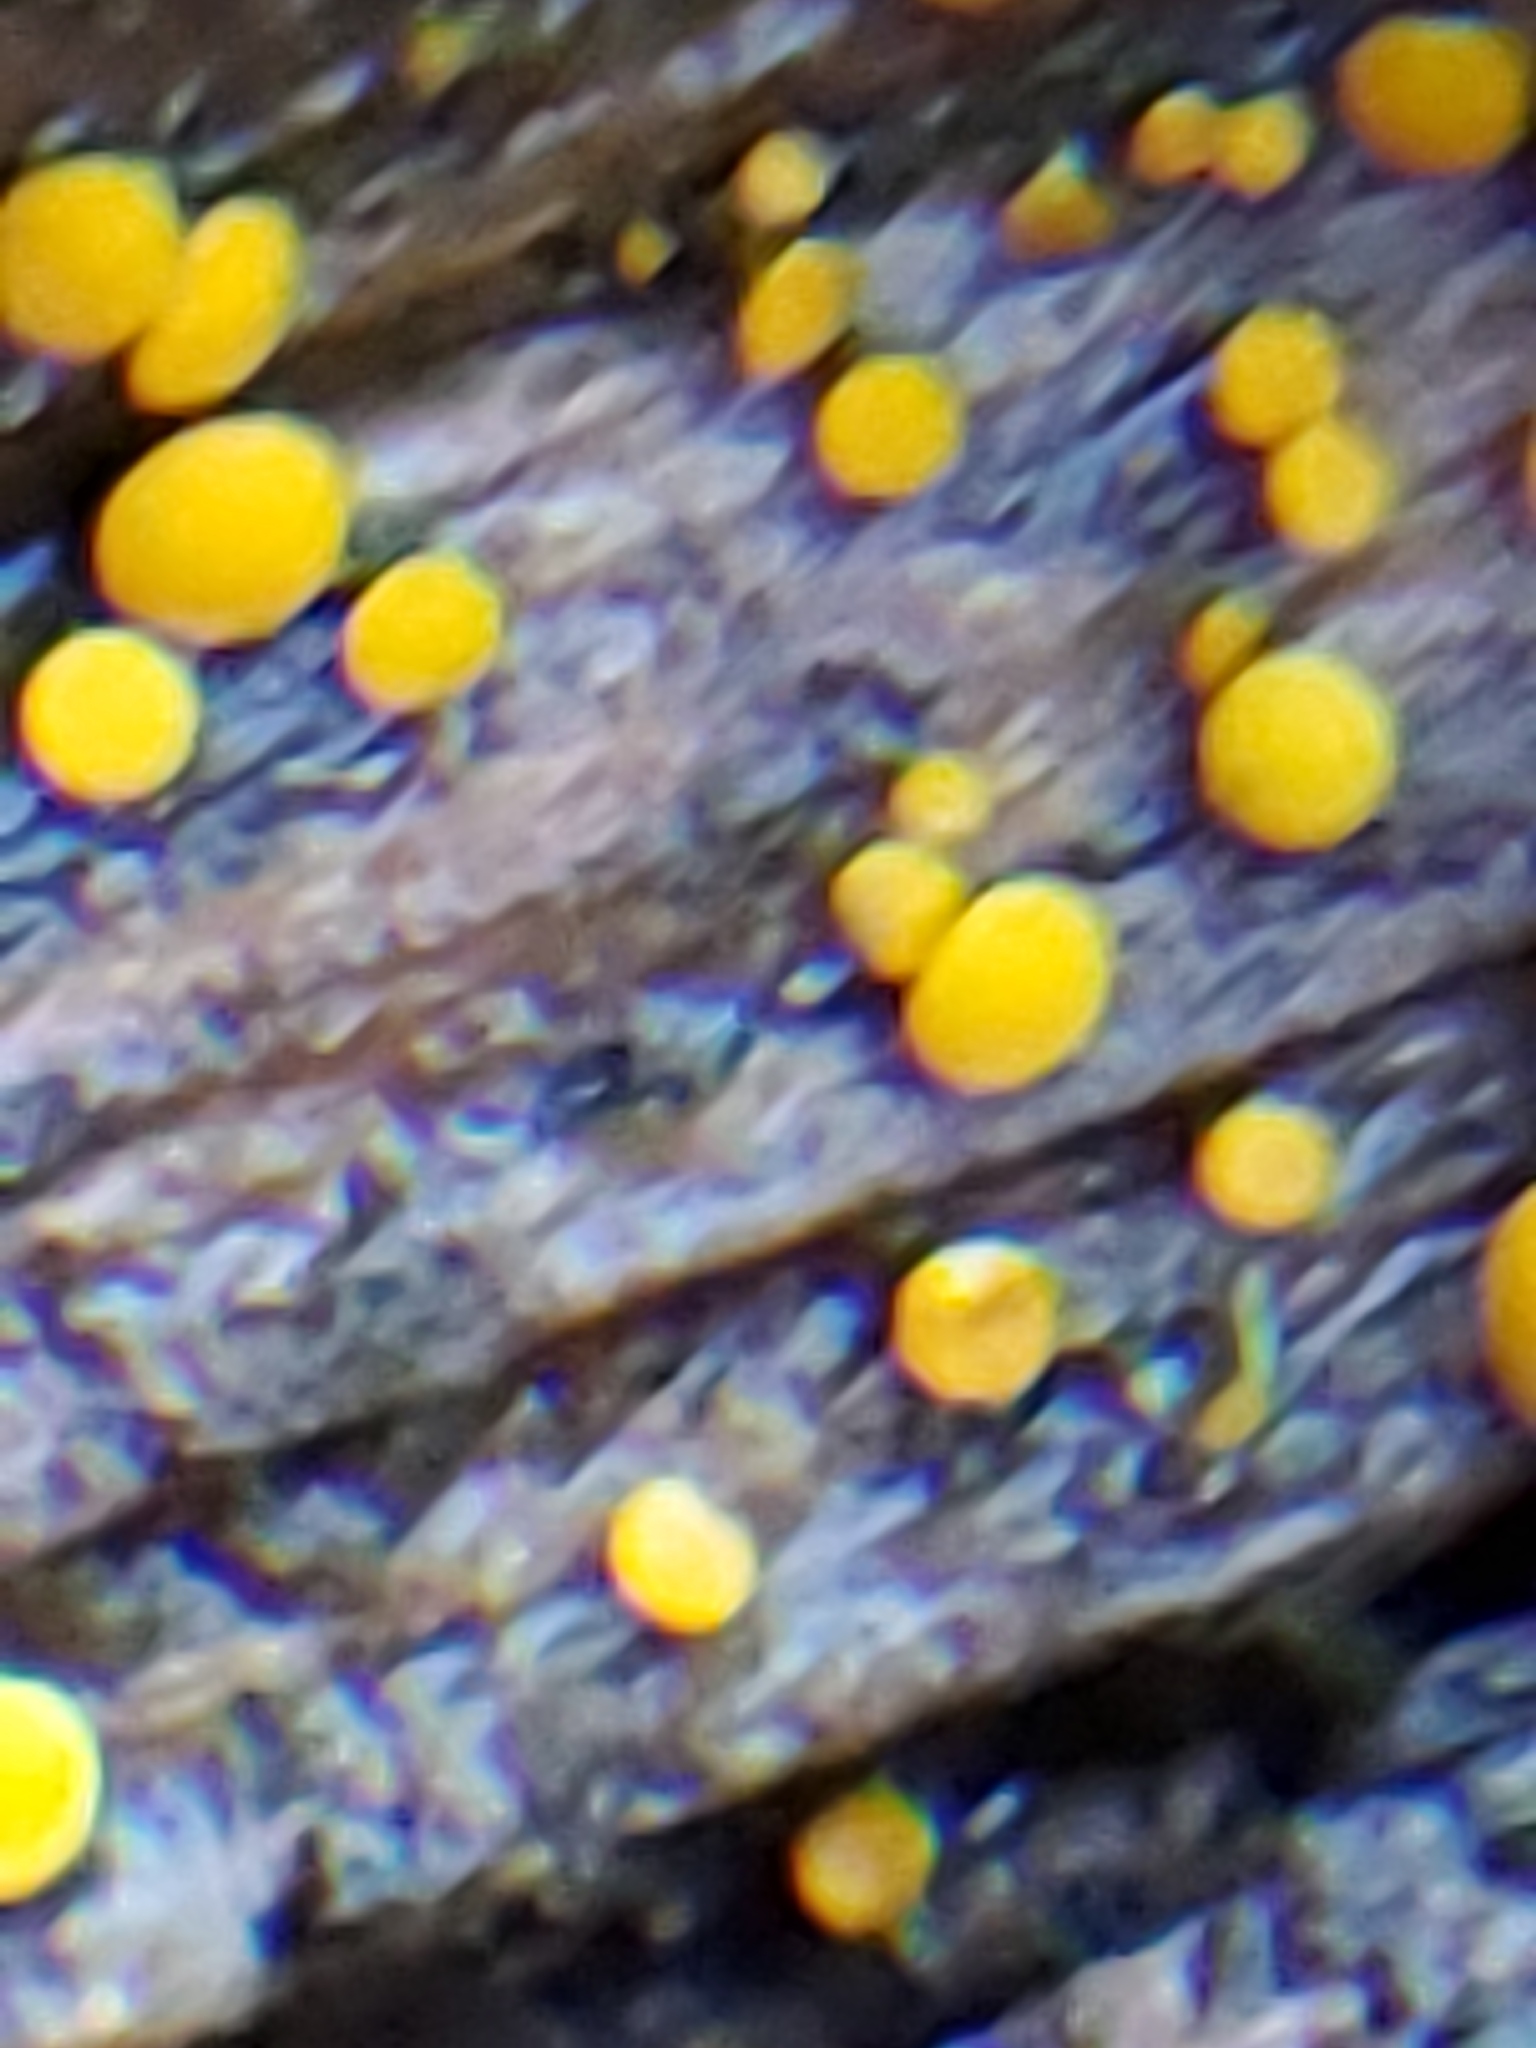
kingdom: Fungi
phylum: Ascomycota
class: Leotiomycetes
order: Helotiales
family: Pezizellaceae
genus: Calycina
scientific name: Calycina citrina
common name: Yellow fairy cups
